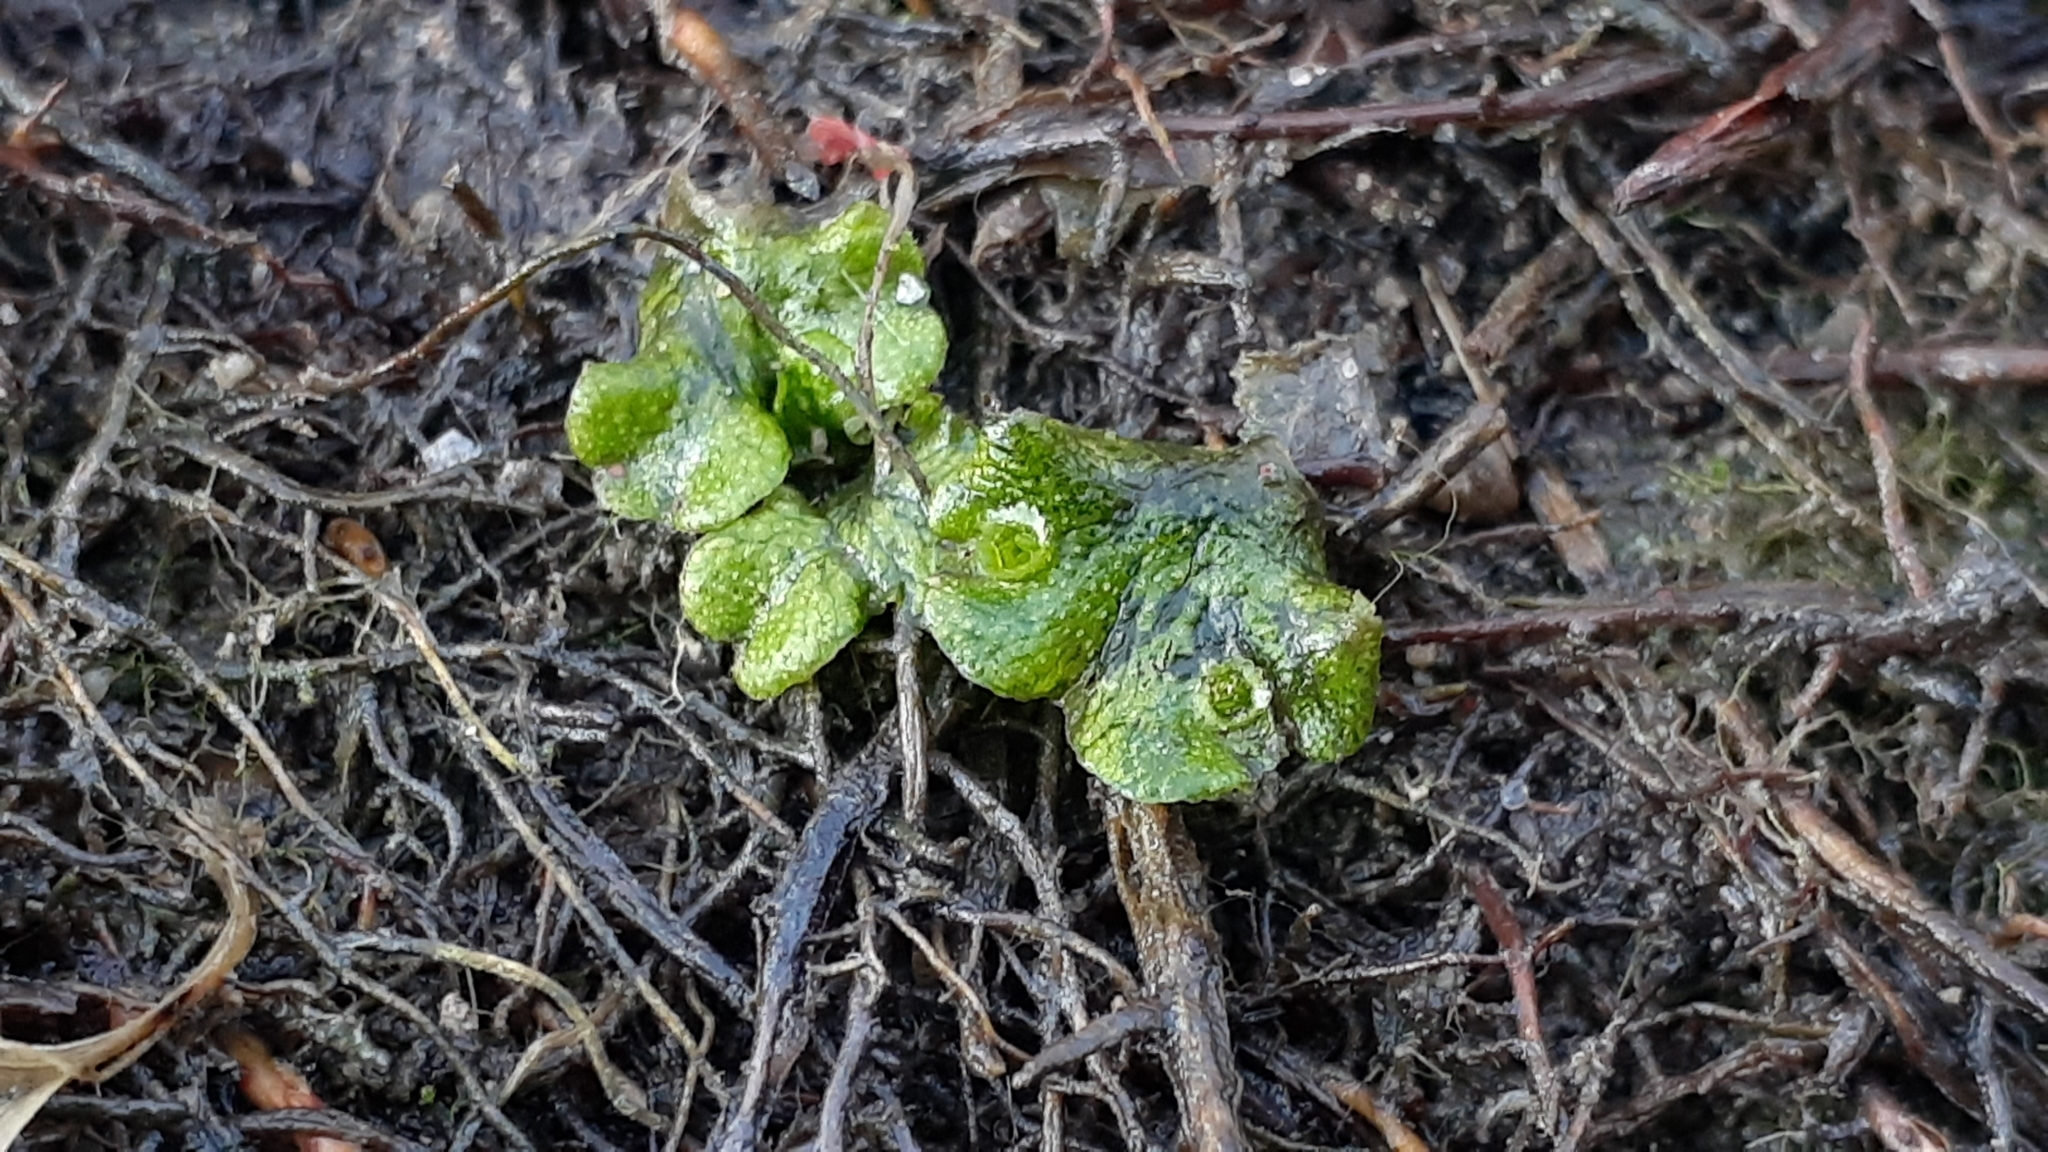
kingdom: Plantae
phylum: Marchantiophyta
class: Marchantiopsida
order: Marchantiales
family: Marchantiaceae
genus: Marchantia
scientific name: Marchantia polymorpha
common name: Common liverwort
